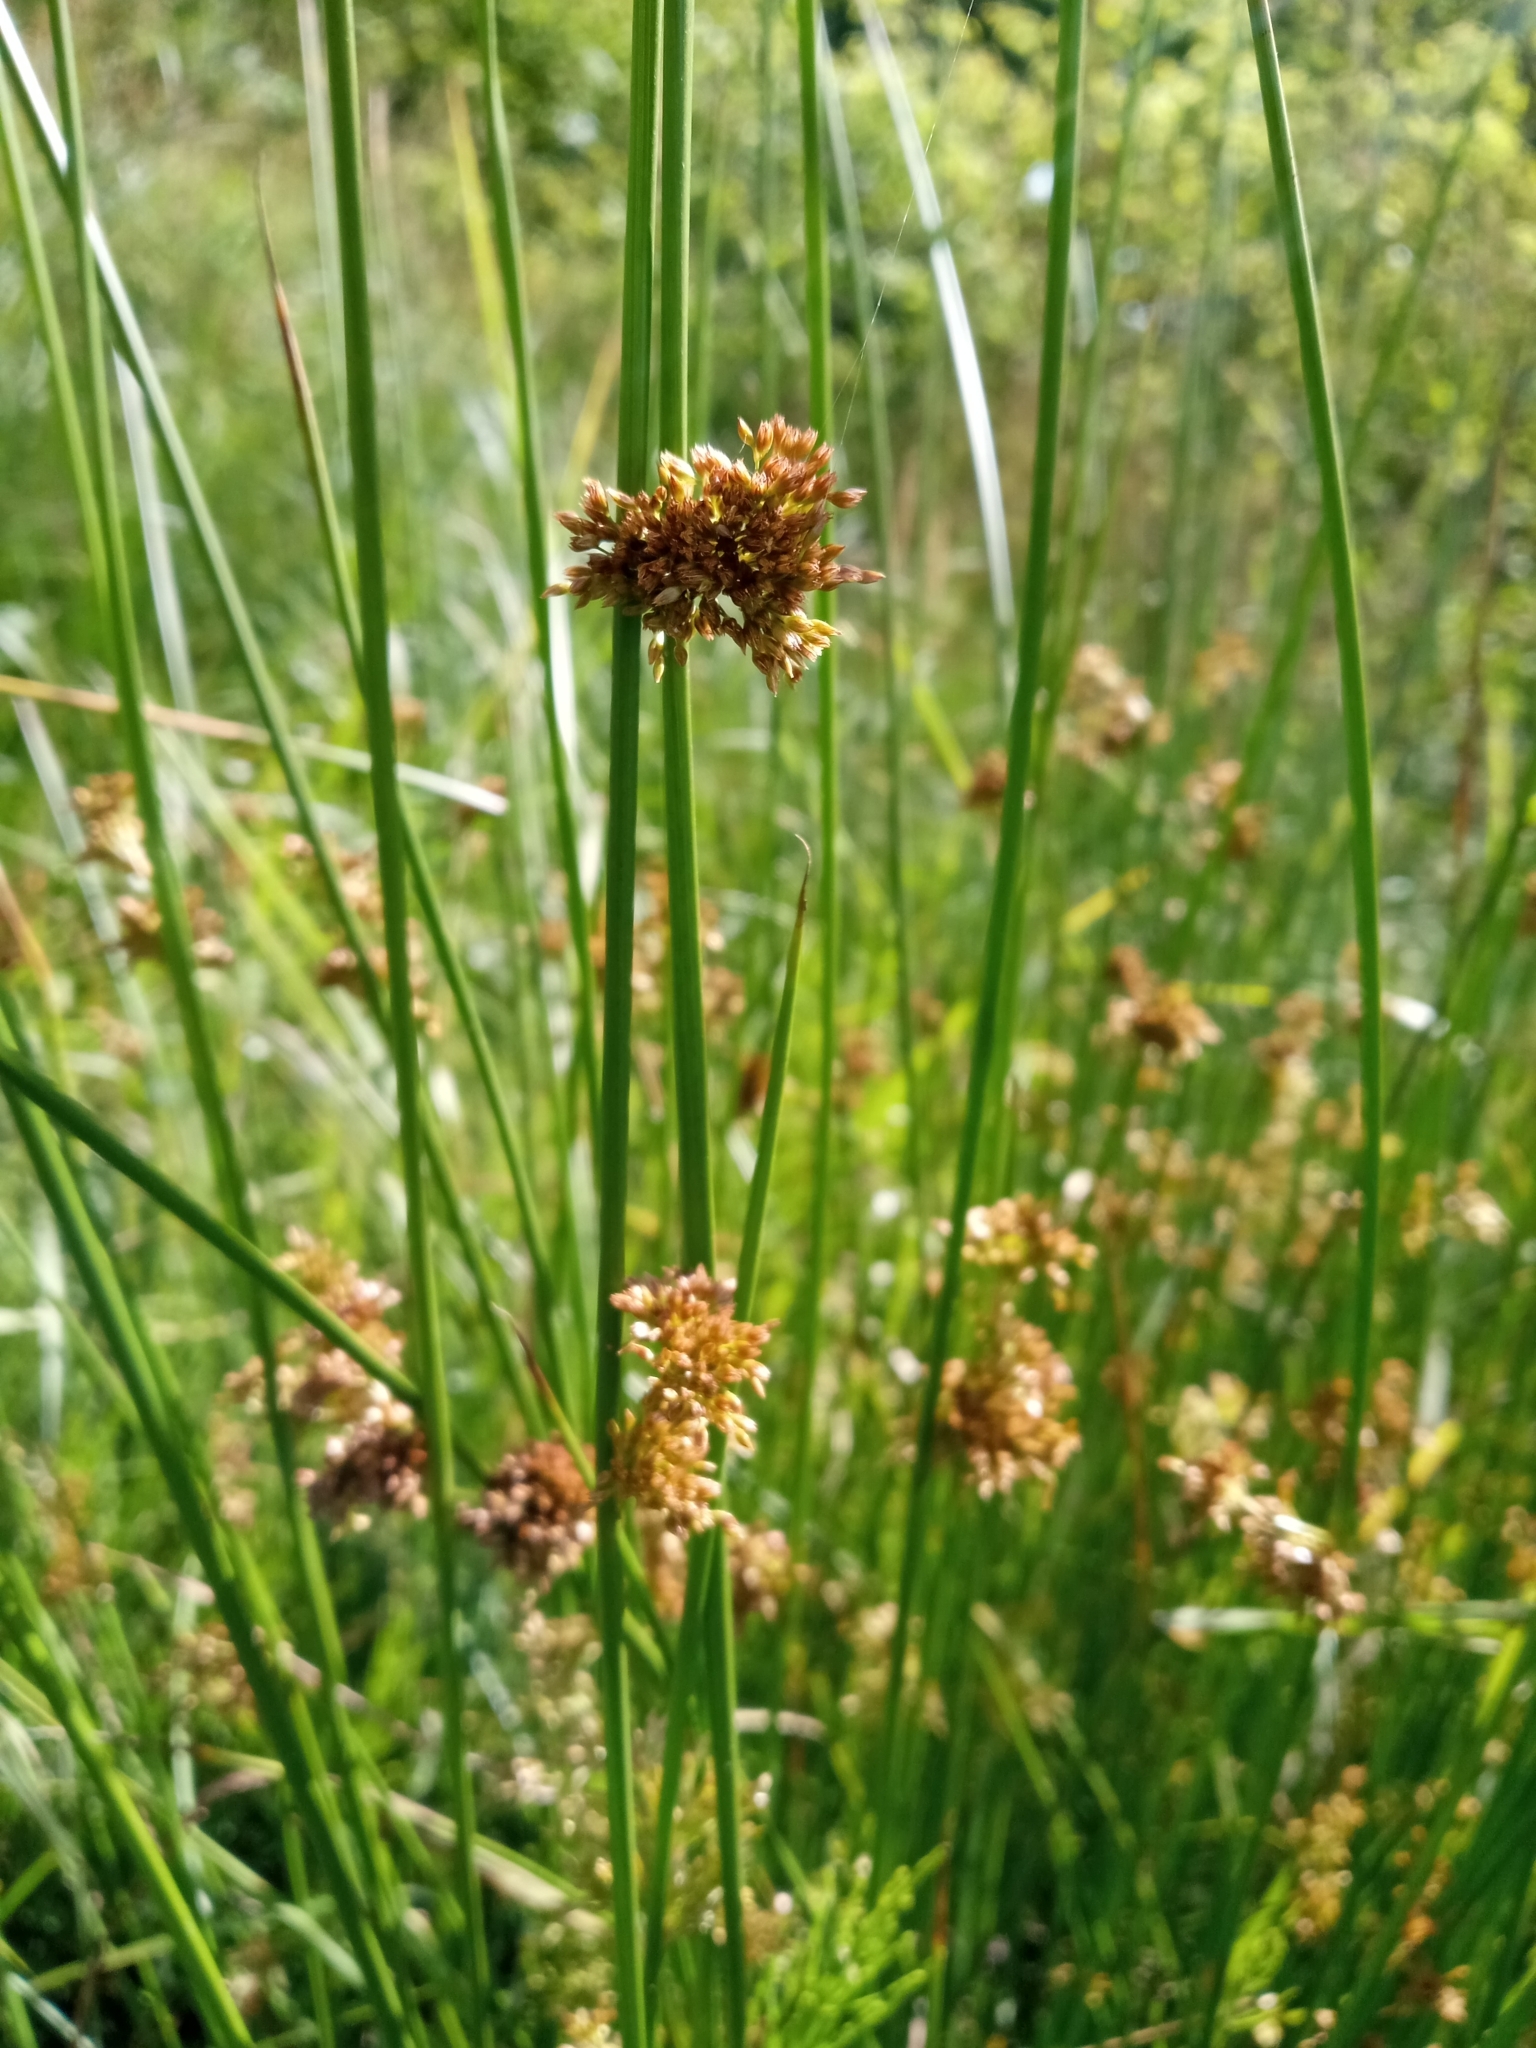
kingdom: Plantae
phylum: Tracheophyta
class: Liliopsida
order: Poales
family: Juncaceae
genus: Juncus
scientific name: Juncus effusus
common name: Soft rush
